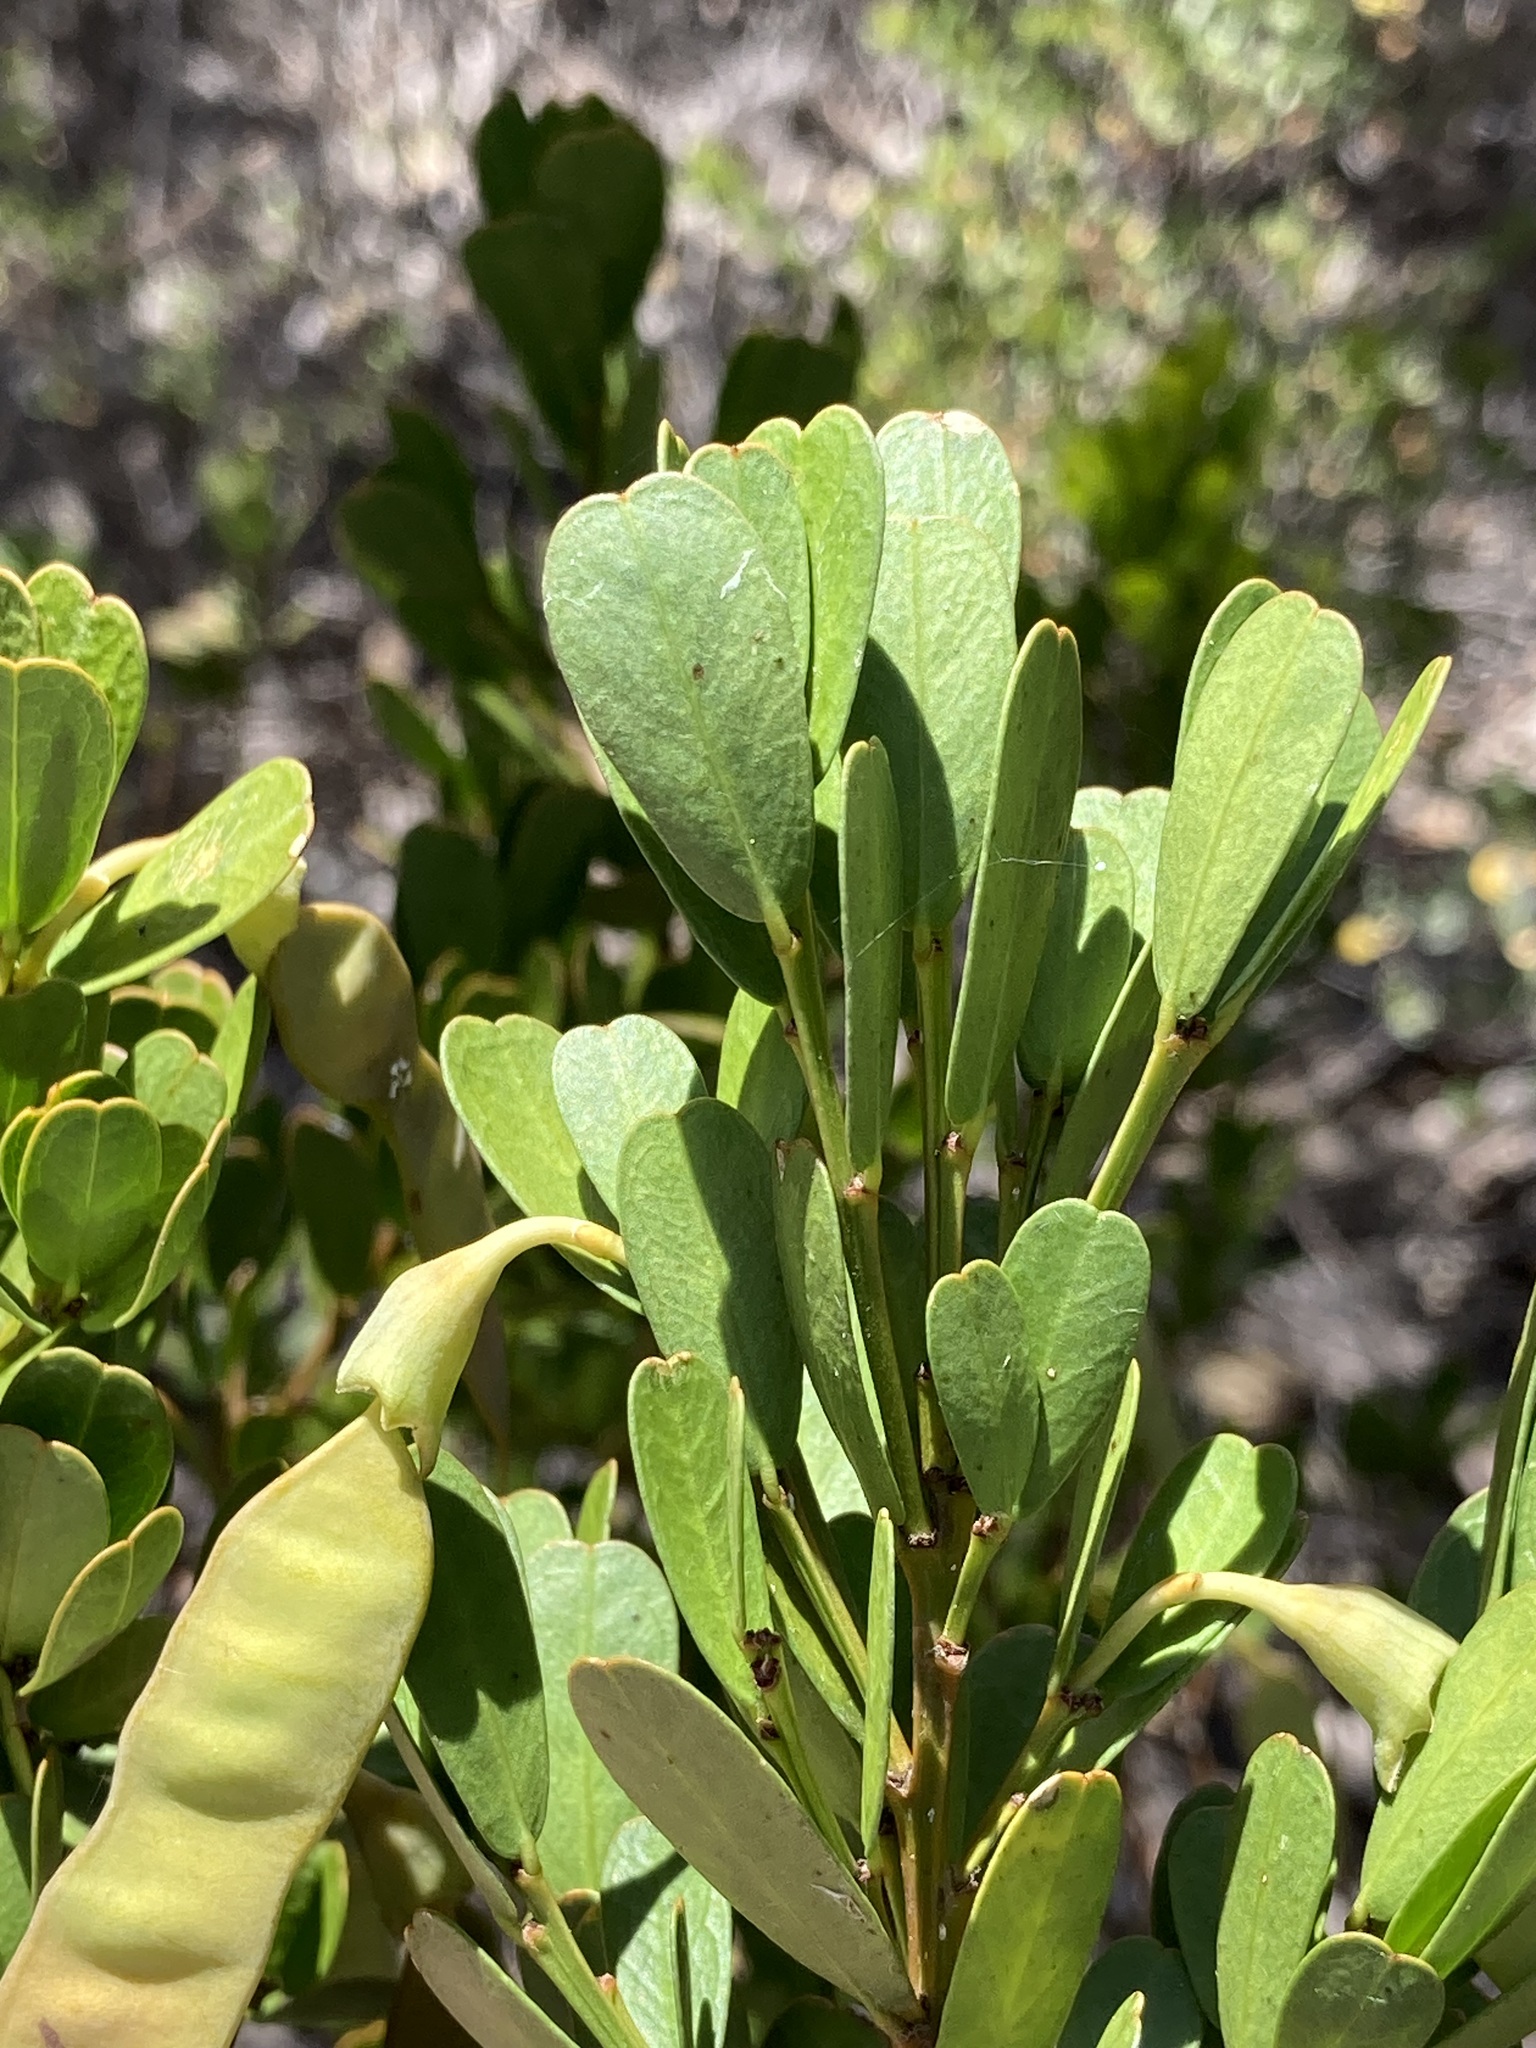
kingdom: Plantae
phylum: Tracheophyta
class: Magnoliopsida
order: Fabales
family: Fabaceae
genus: Templetonia
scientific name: Templetonia retusa
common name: Cockies'-tongue
